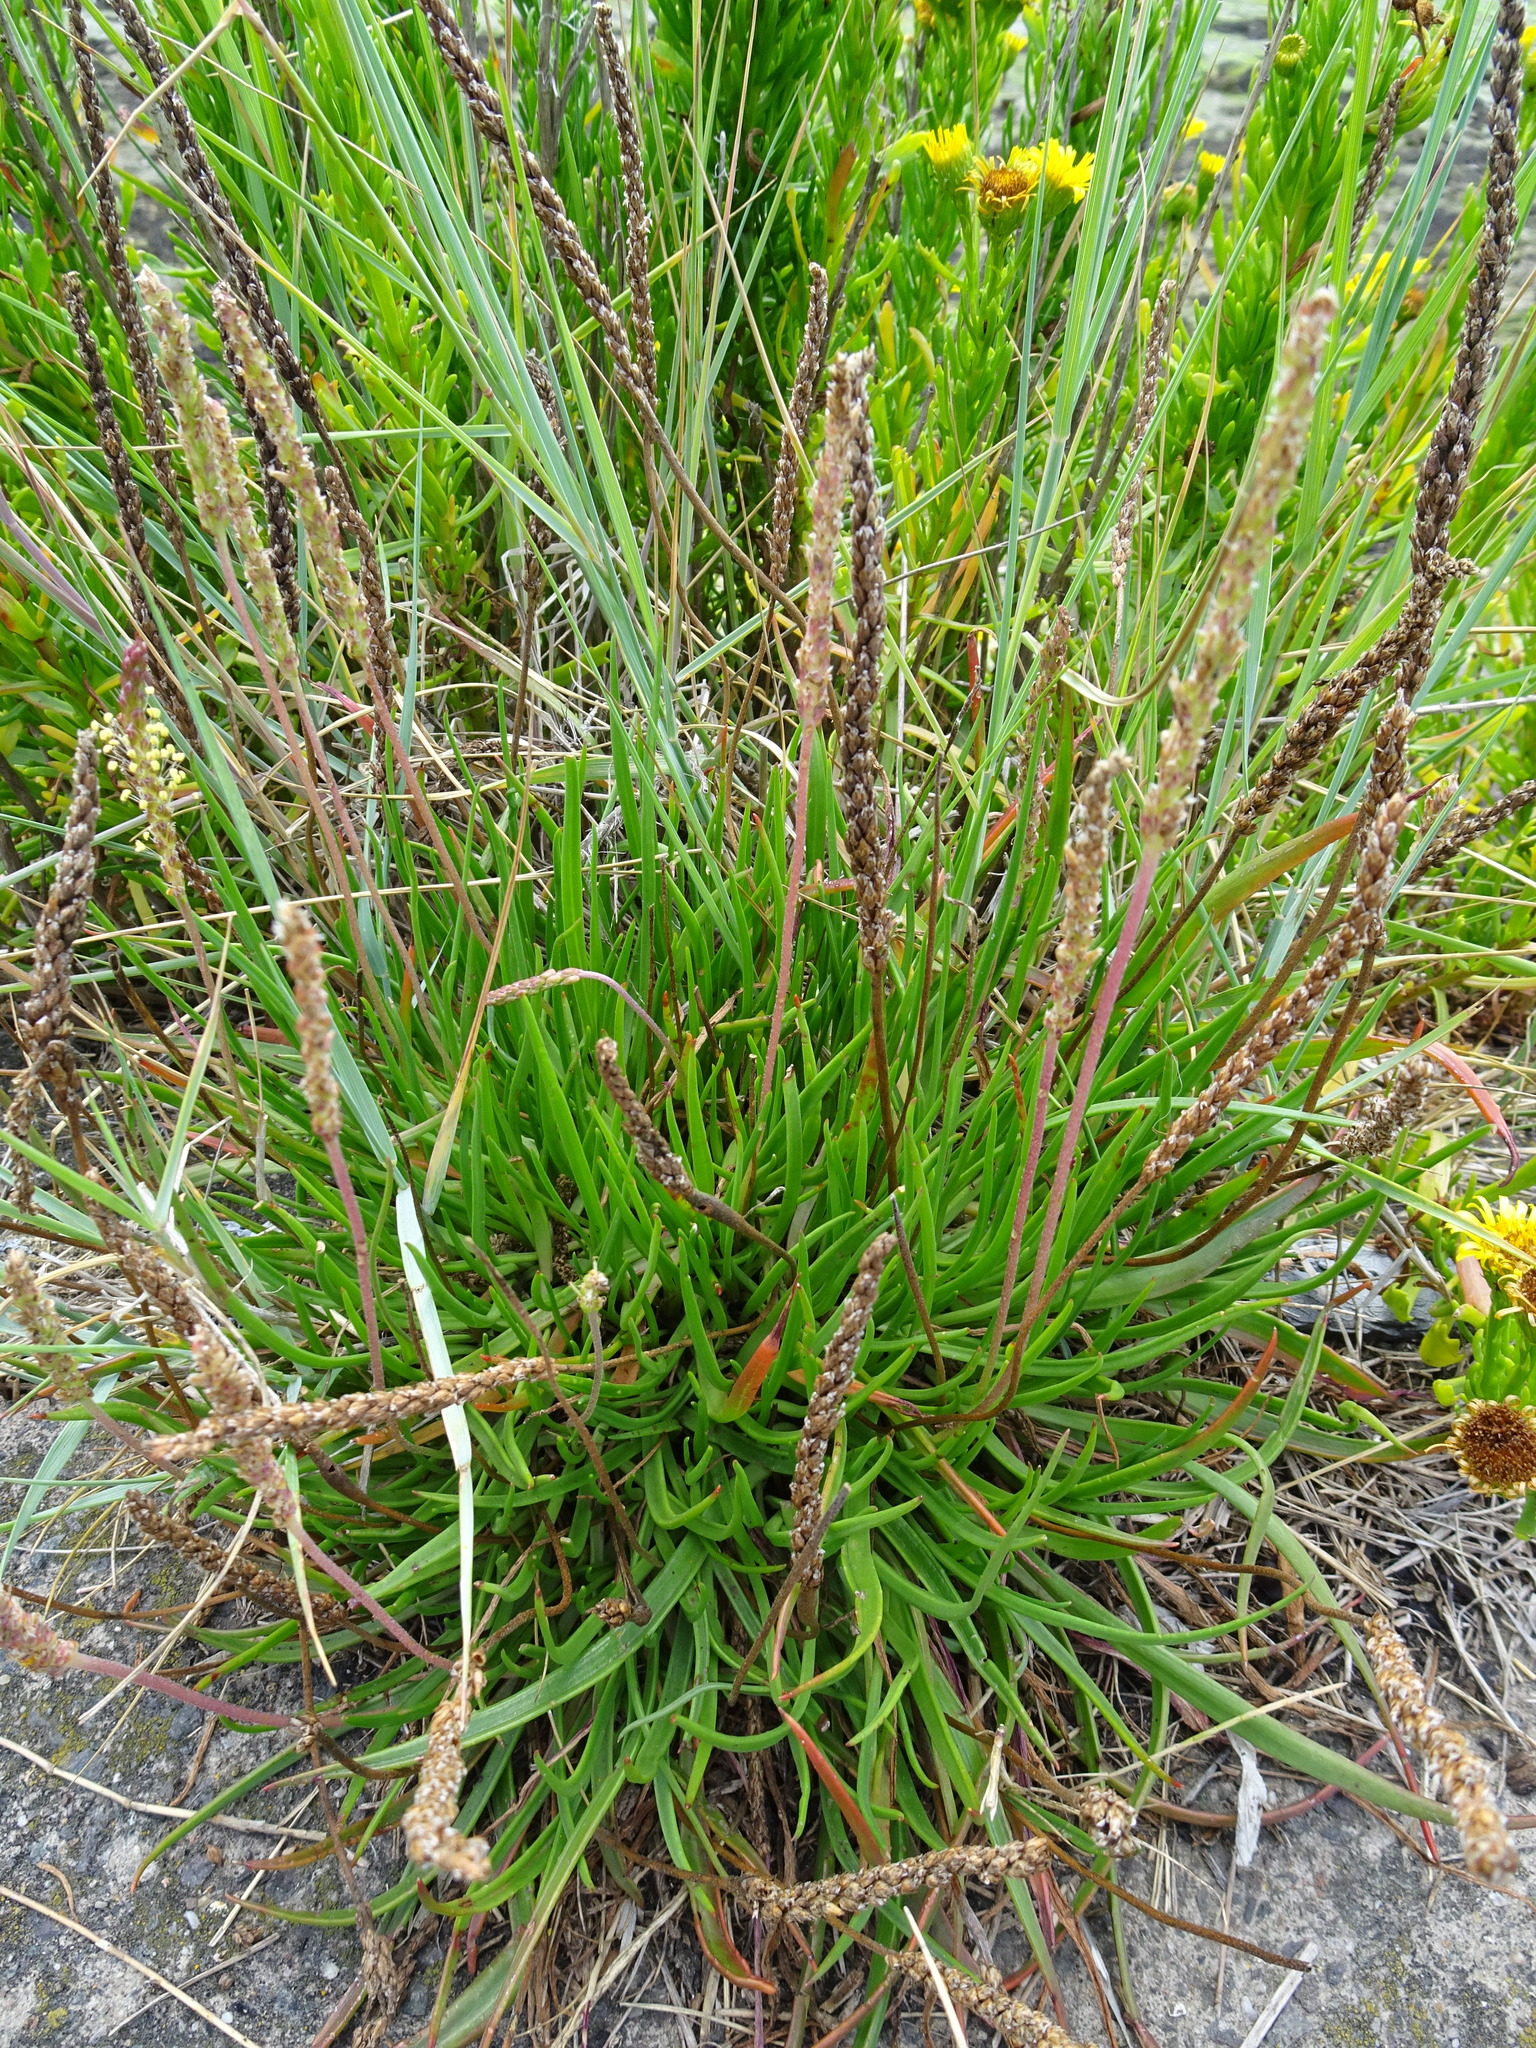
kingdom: Plantae
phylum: Tracheophyta
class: Magnoliopsida
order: Lamiales
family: Plantaginaceae
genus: Plantago
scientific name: Plantago maritima
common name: Sea plantain
